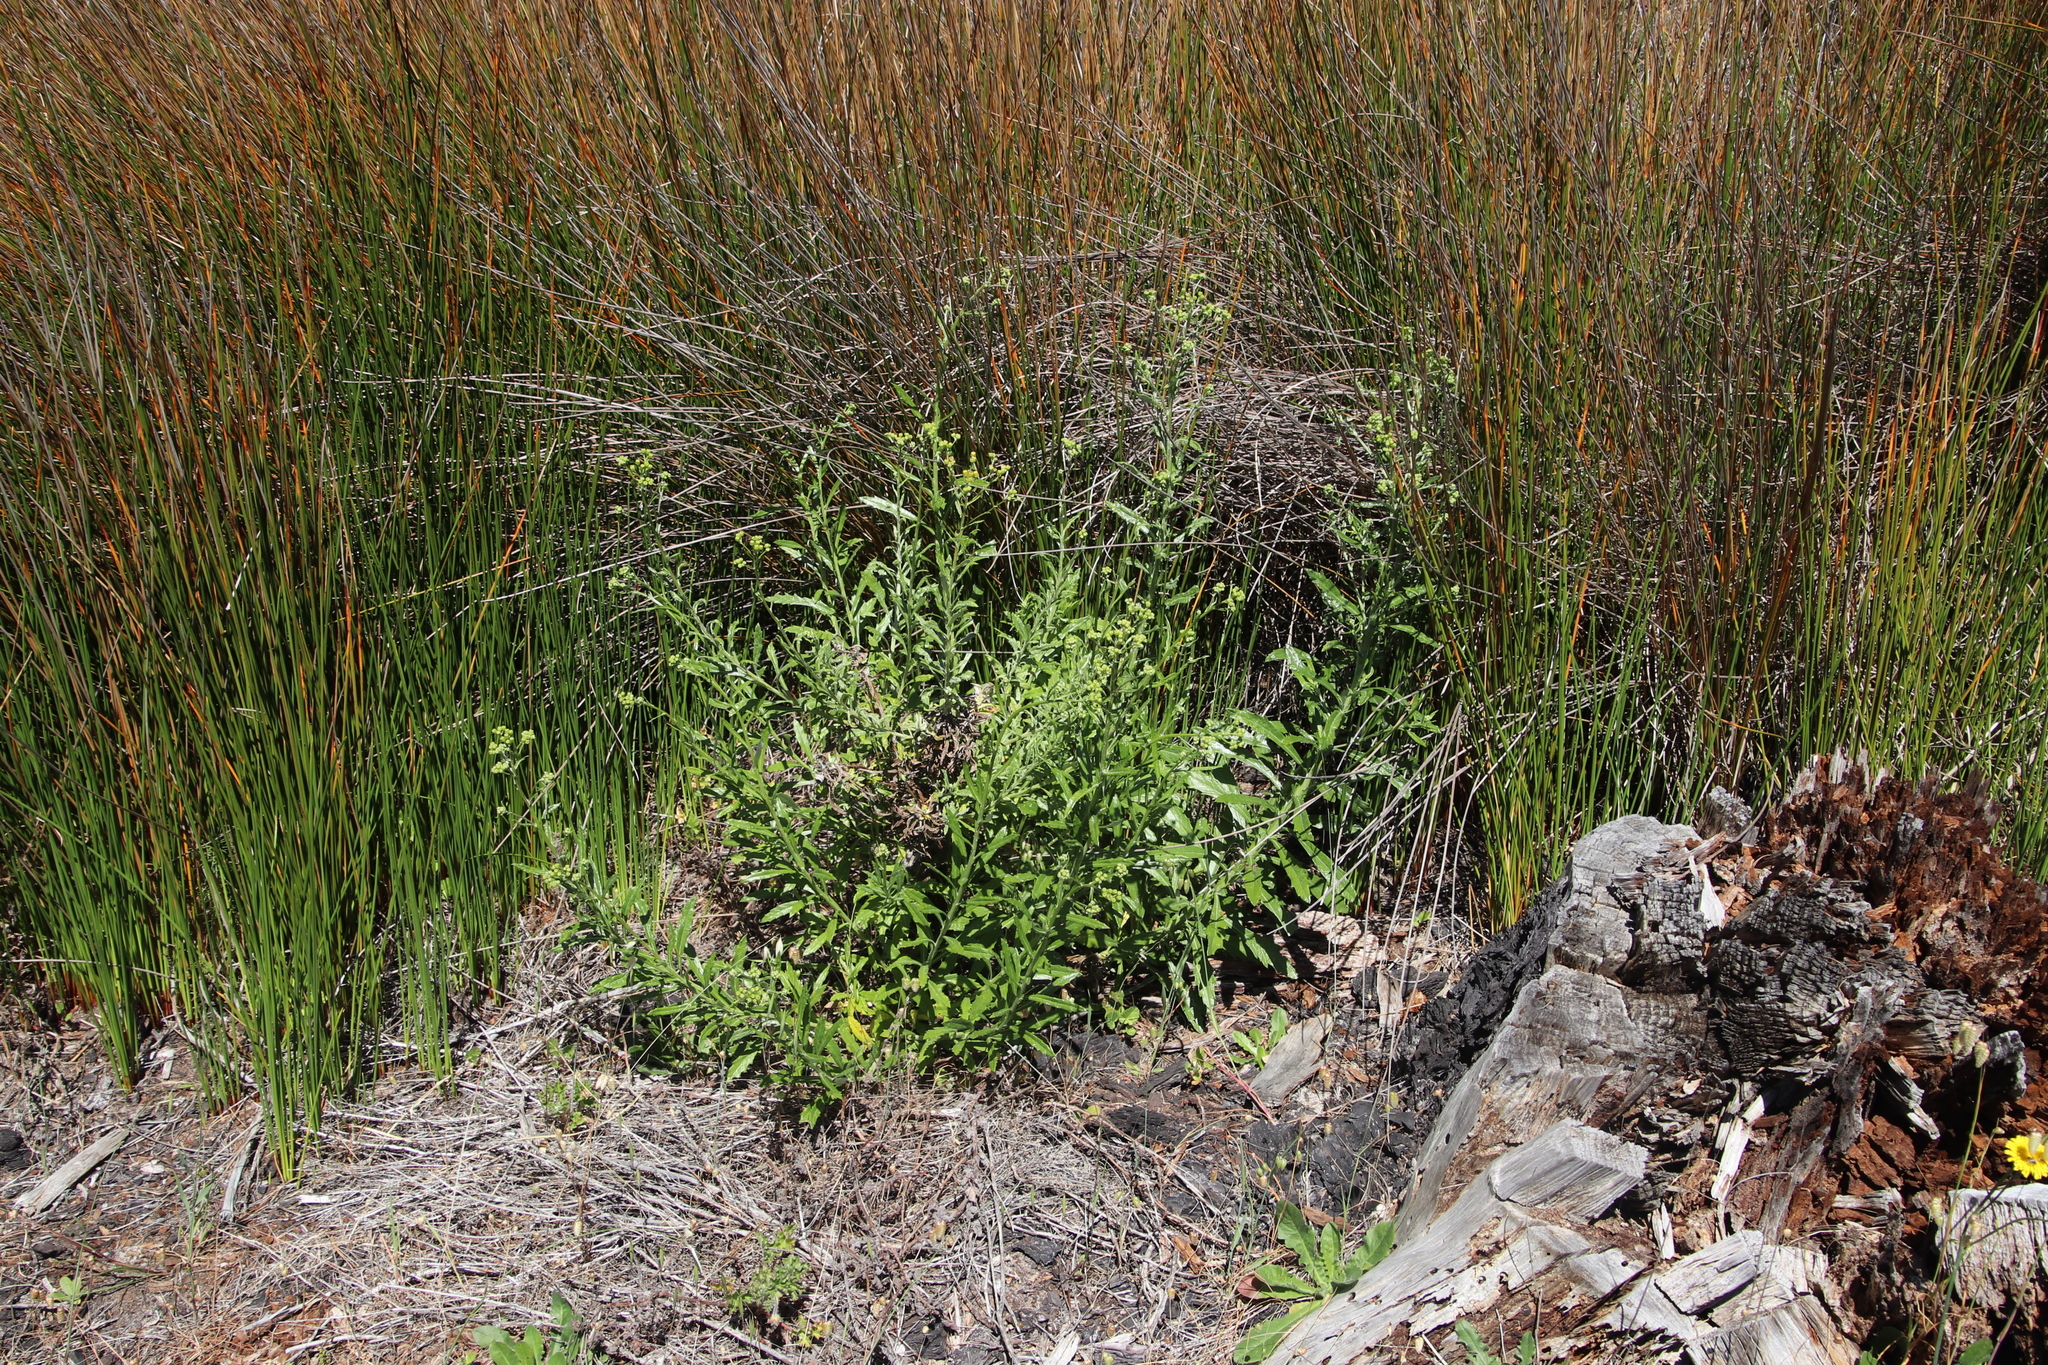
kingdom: Plantae
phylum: Tracheophyta
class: Magnoliopsida
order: Asterales
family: Asteraceae
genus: Senecio
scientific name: Senecio pterophorus
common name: Shoddy ragwort
